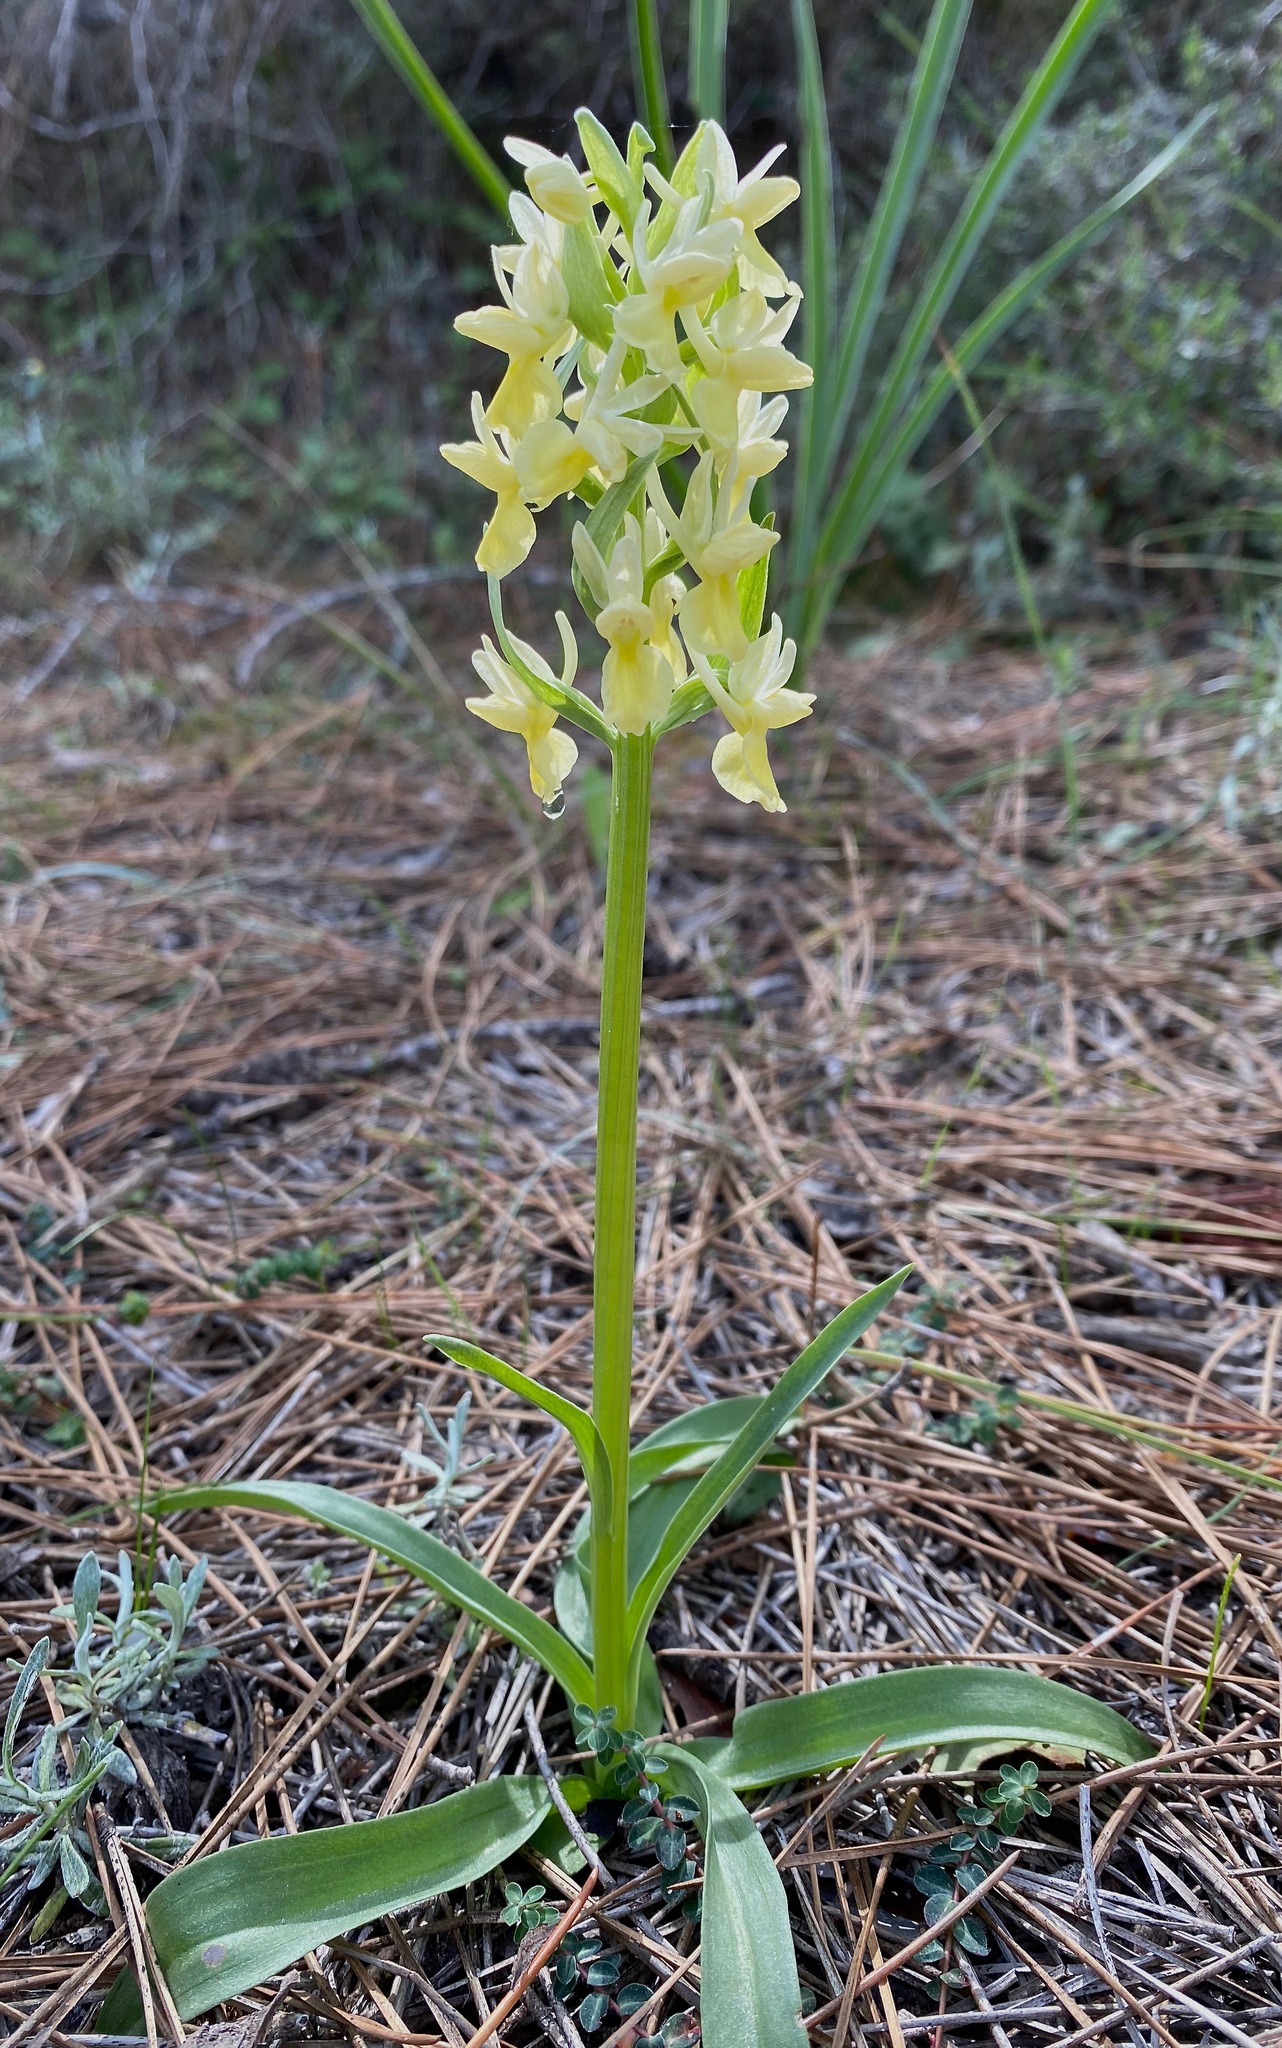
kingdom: Plantae
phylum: Tracheophyta
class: Liliopsida
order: Asparagales
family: Orchidaceae
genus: Dactylorhiza
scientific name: Dactylorhiza romana
